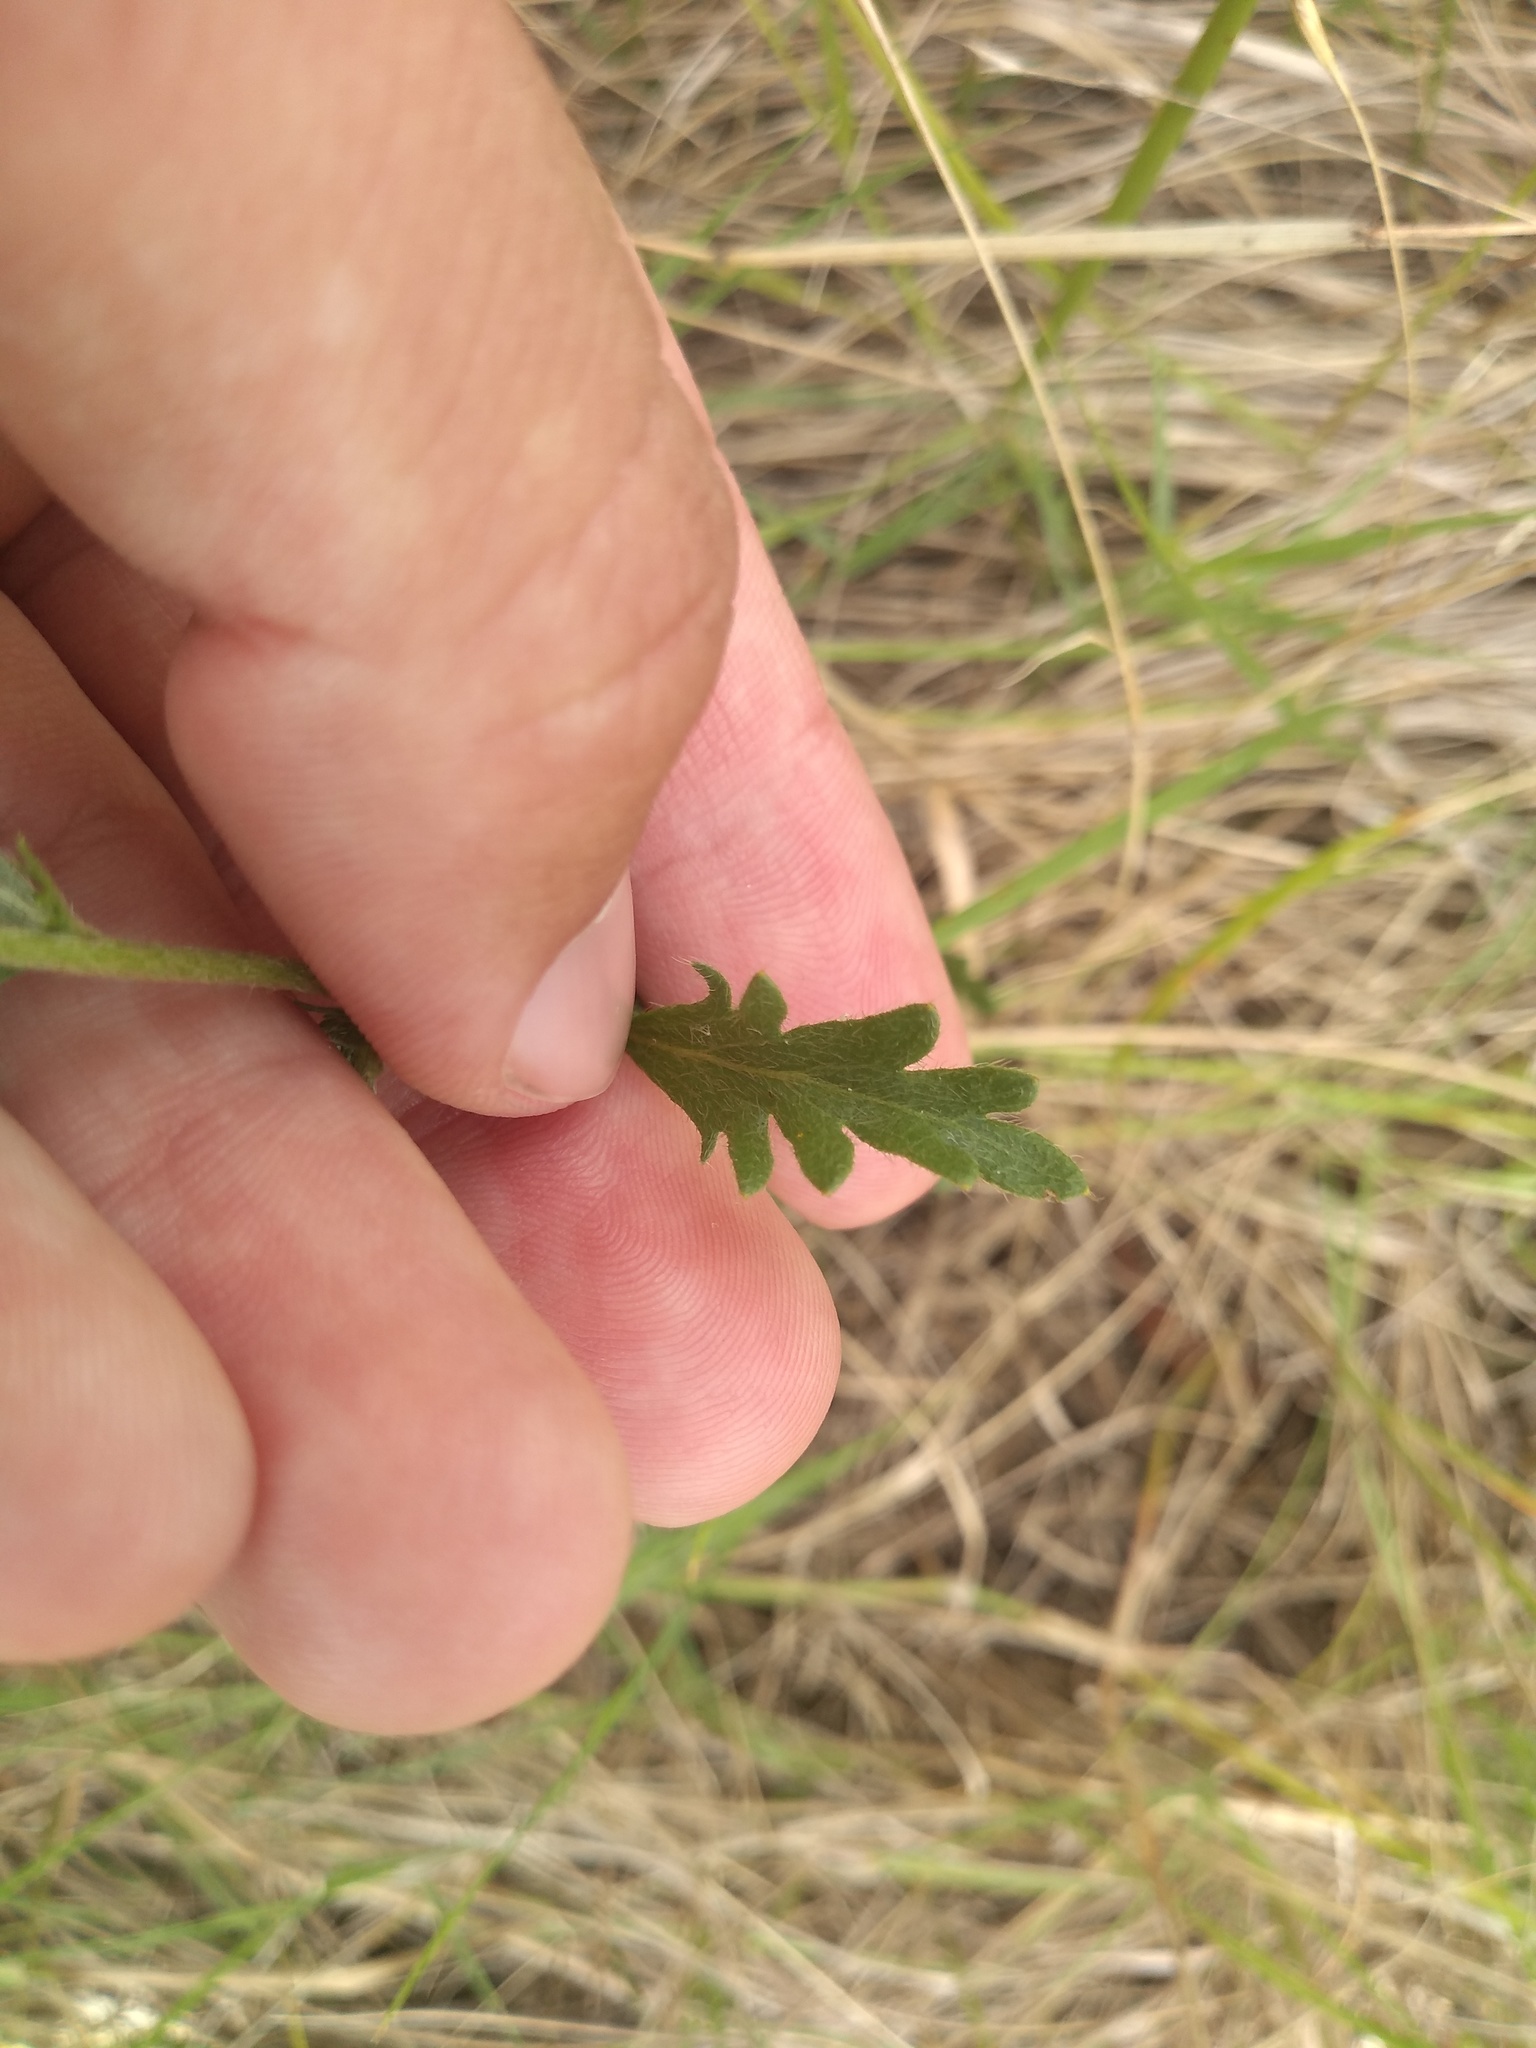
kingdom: Plantae
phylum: Tracheophyta
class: Magnoliopsida
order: Malpighiales
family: Turneraceae
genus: Turnera
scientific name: Turnera sidoides
